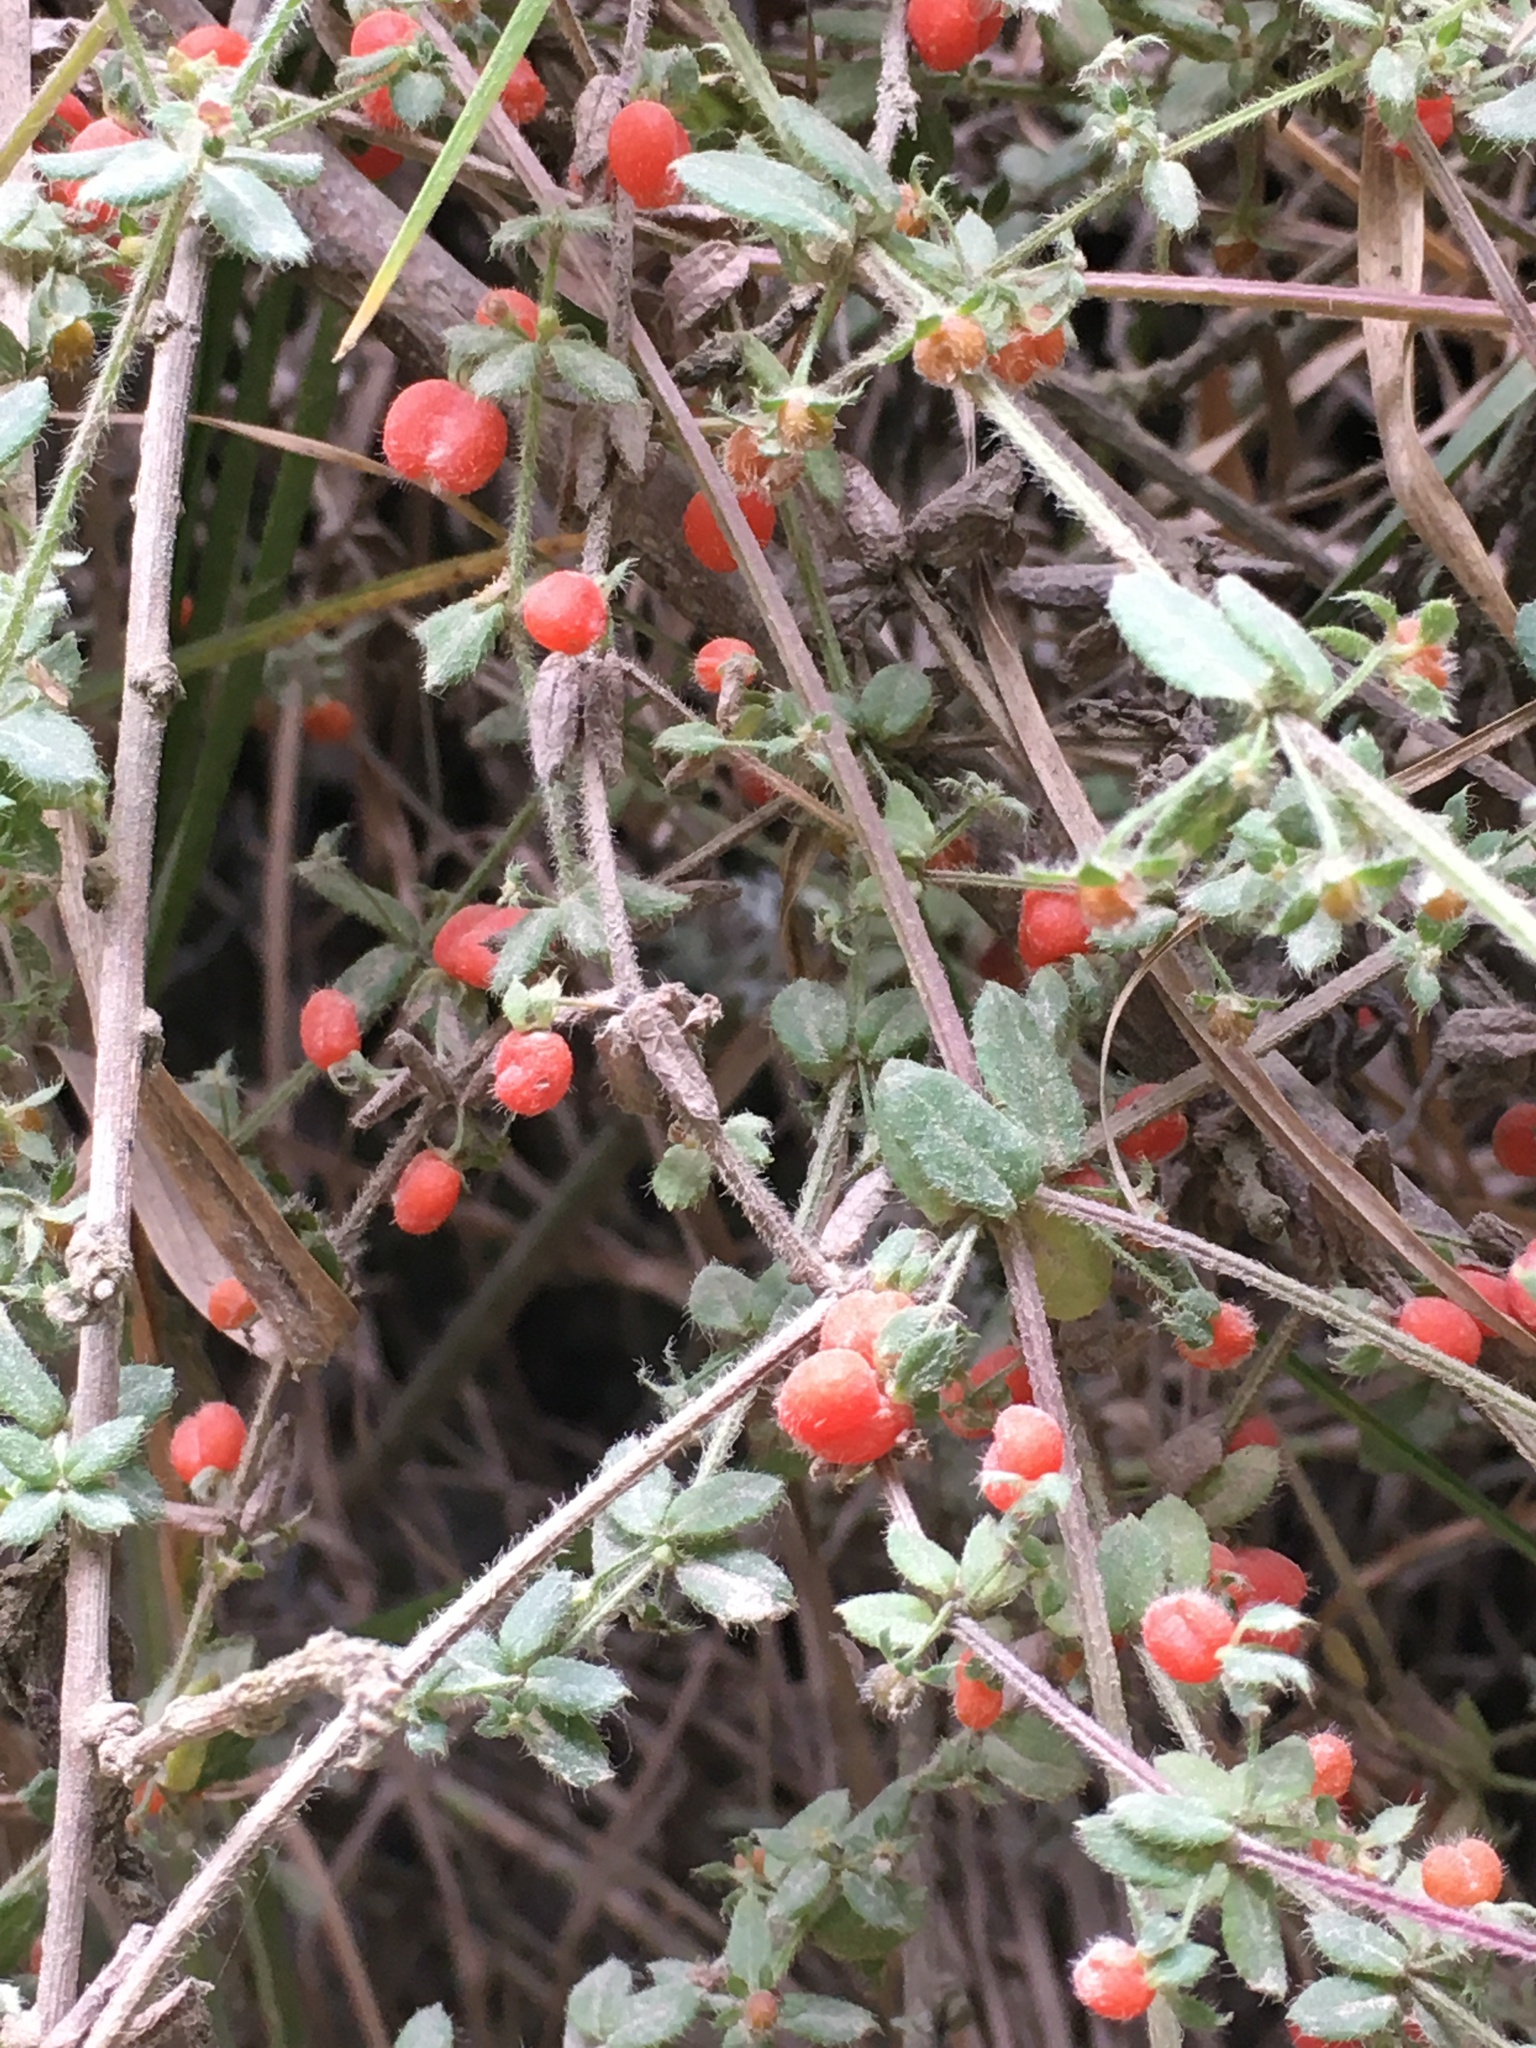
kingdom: Plantae
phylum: Tracheophyta
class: Magnoliopsida
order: Gentianales
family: Rubiaceae
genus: Galium
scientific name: Galium hypocarpium
